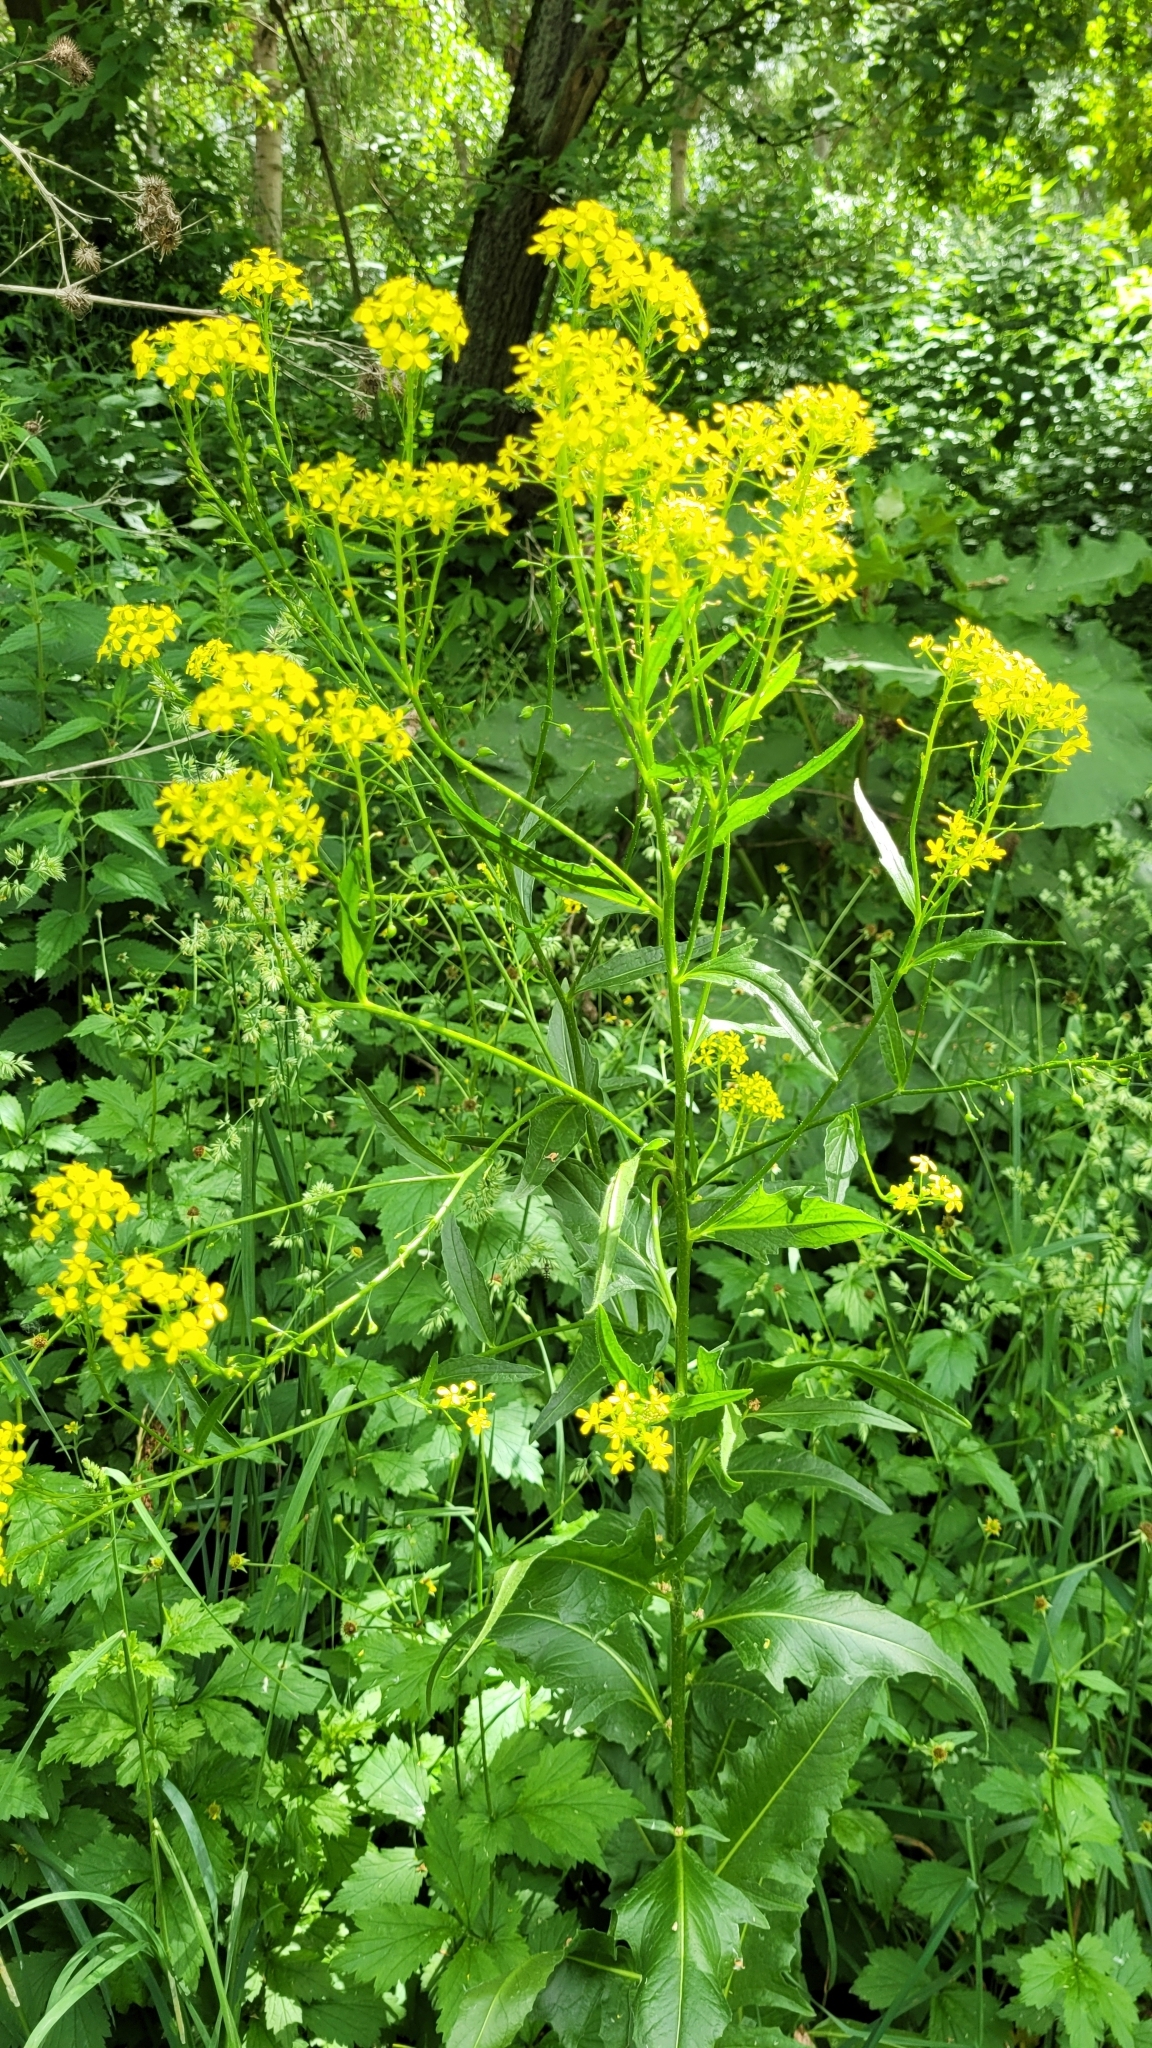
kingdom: Plantae
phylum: Tracheophyta
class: Magnoliopsida
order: Brassicales
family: Brassicaceae
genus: Bunias
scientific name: Bunias orientalis
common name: Warty-cabbage
